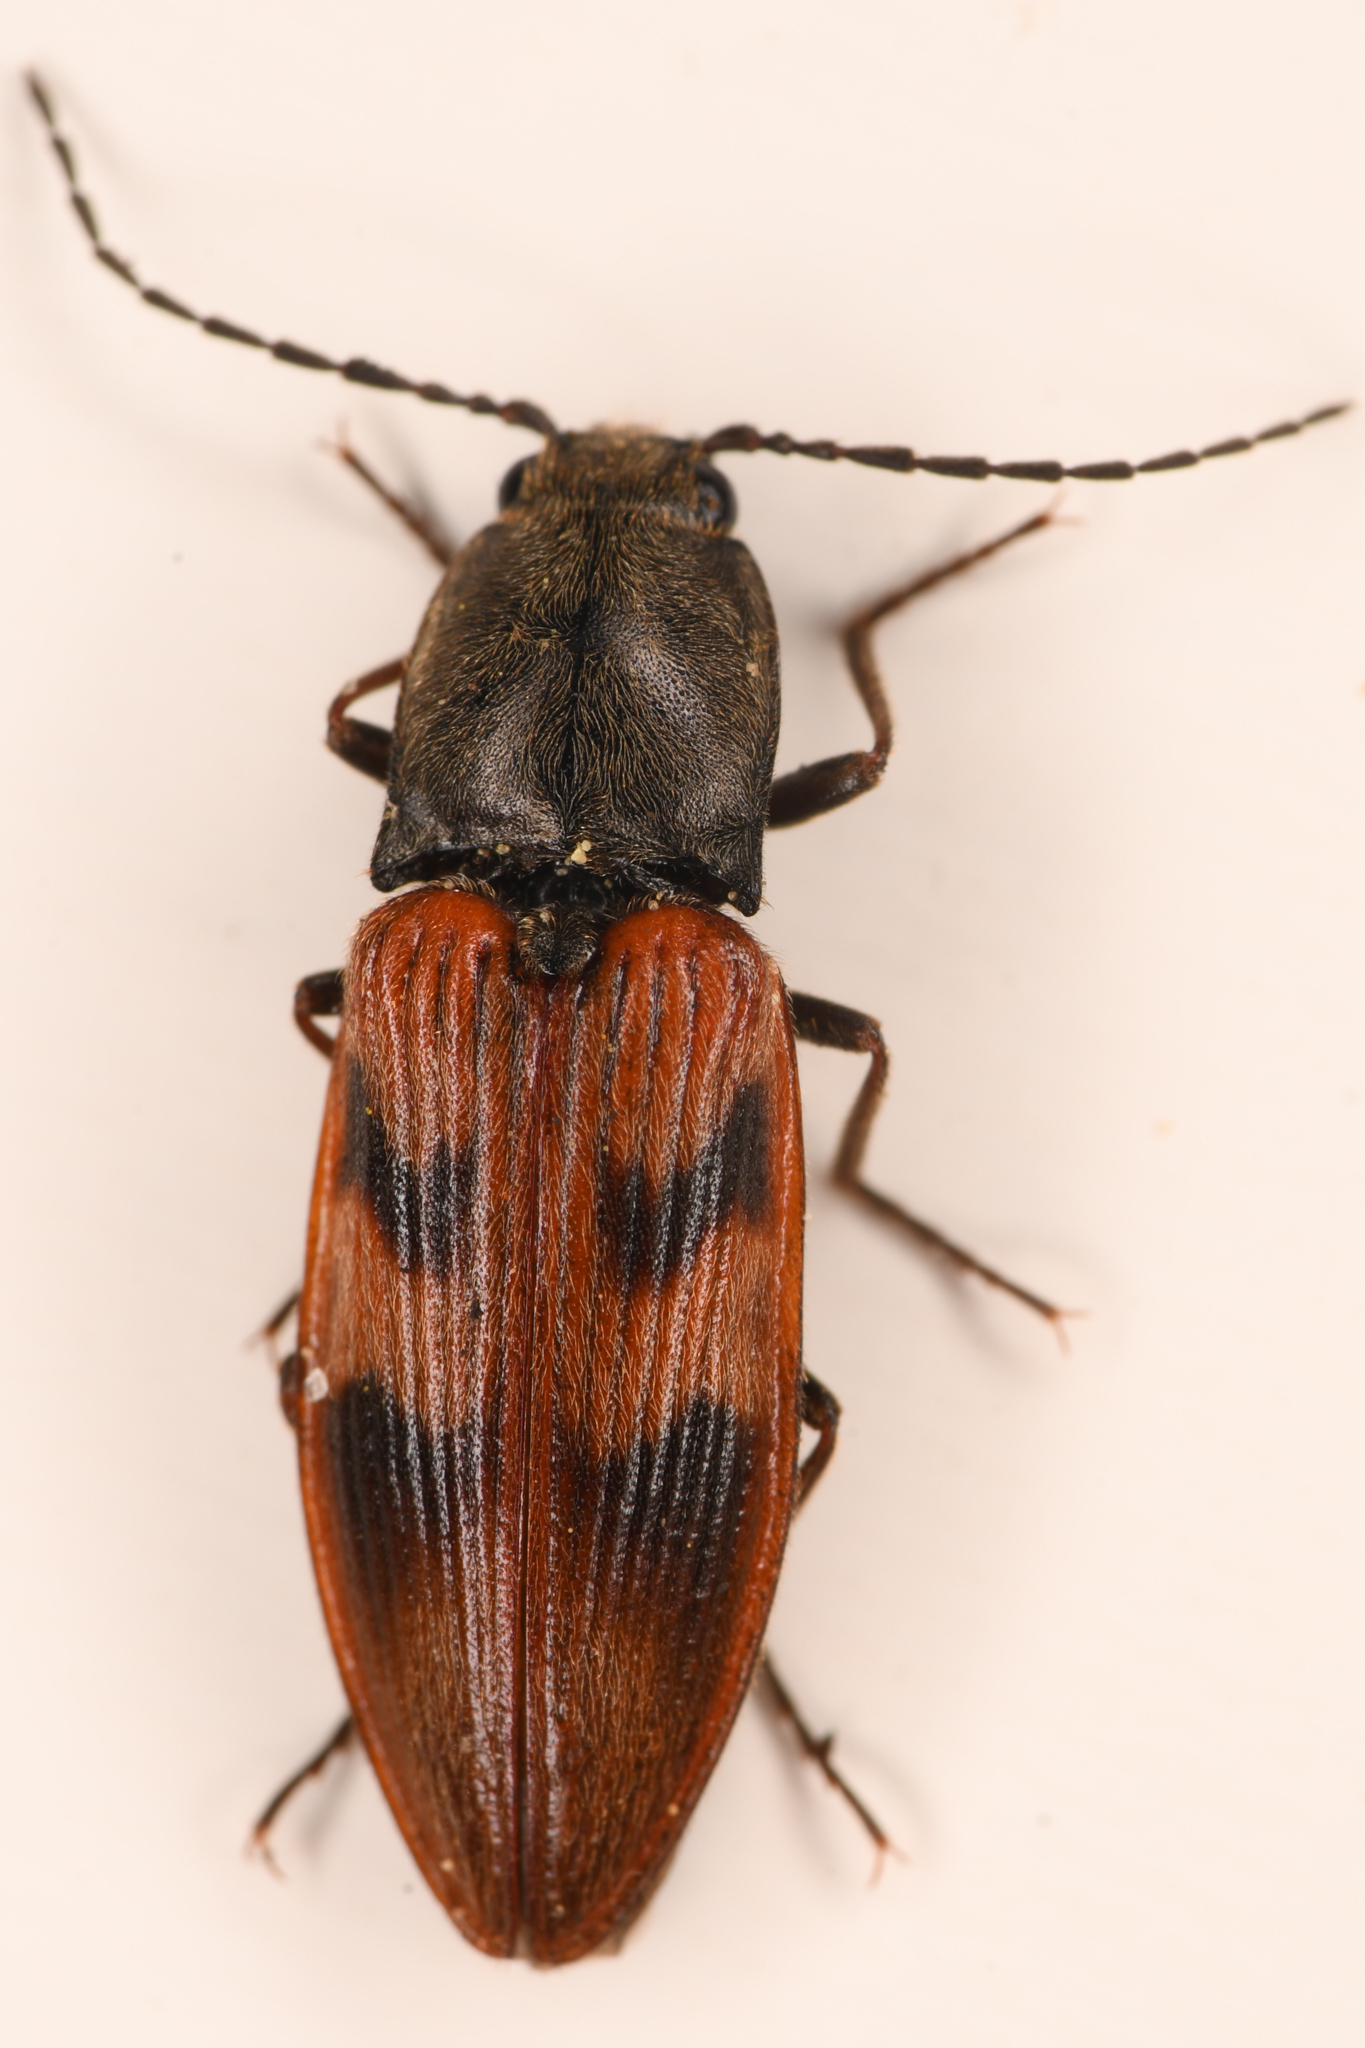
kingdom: Animalia
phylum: Arthropoda
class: Insecta
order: Coleoptera
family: Elateridae
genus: Stropenron
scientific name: Stropenron nigricollis
